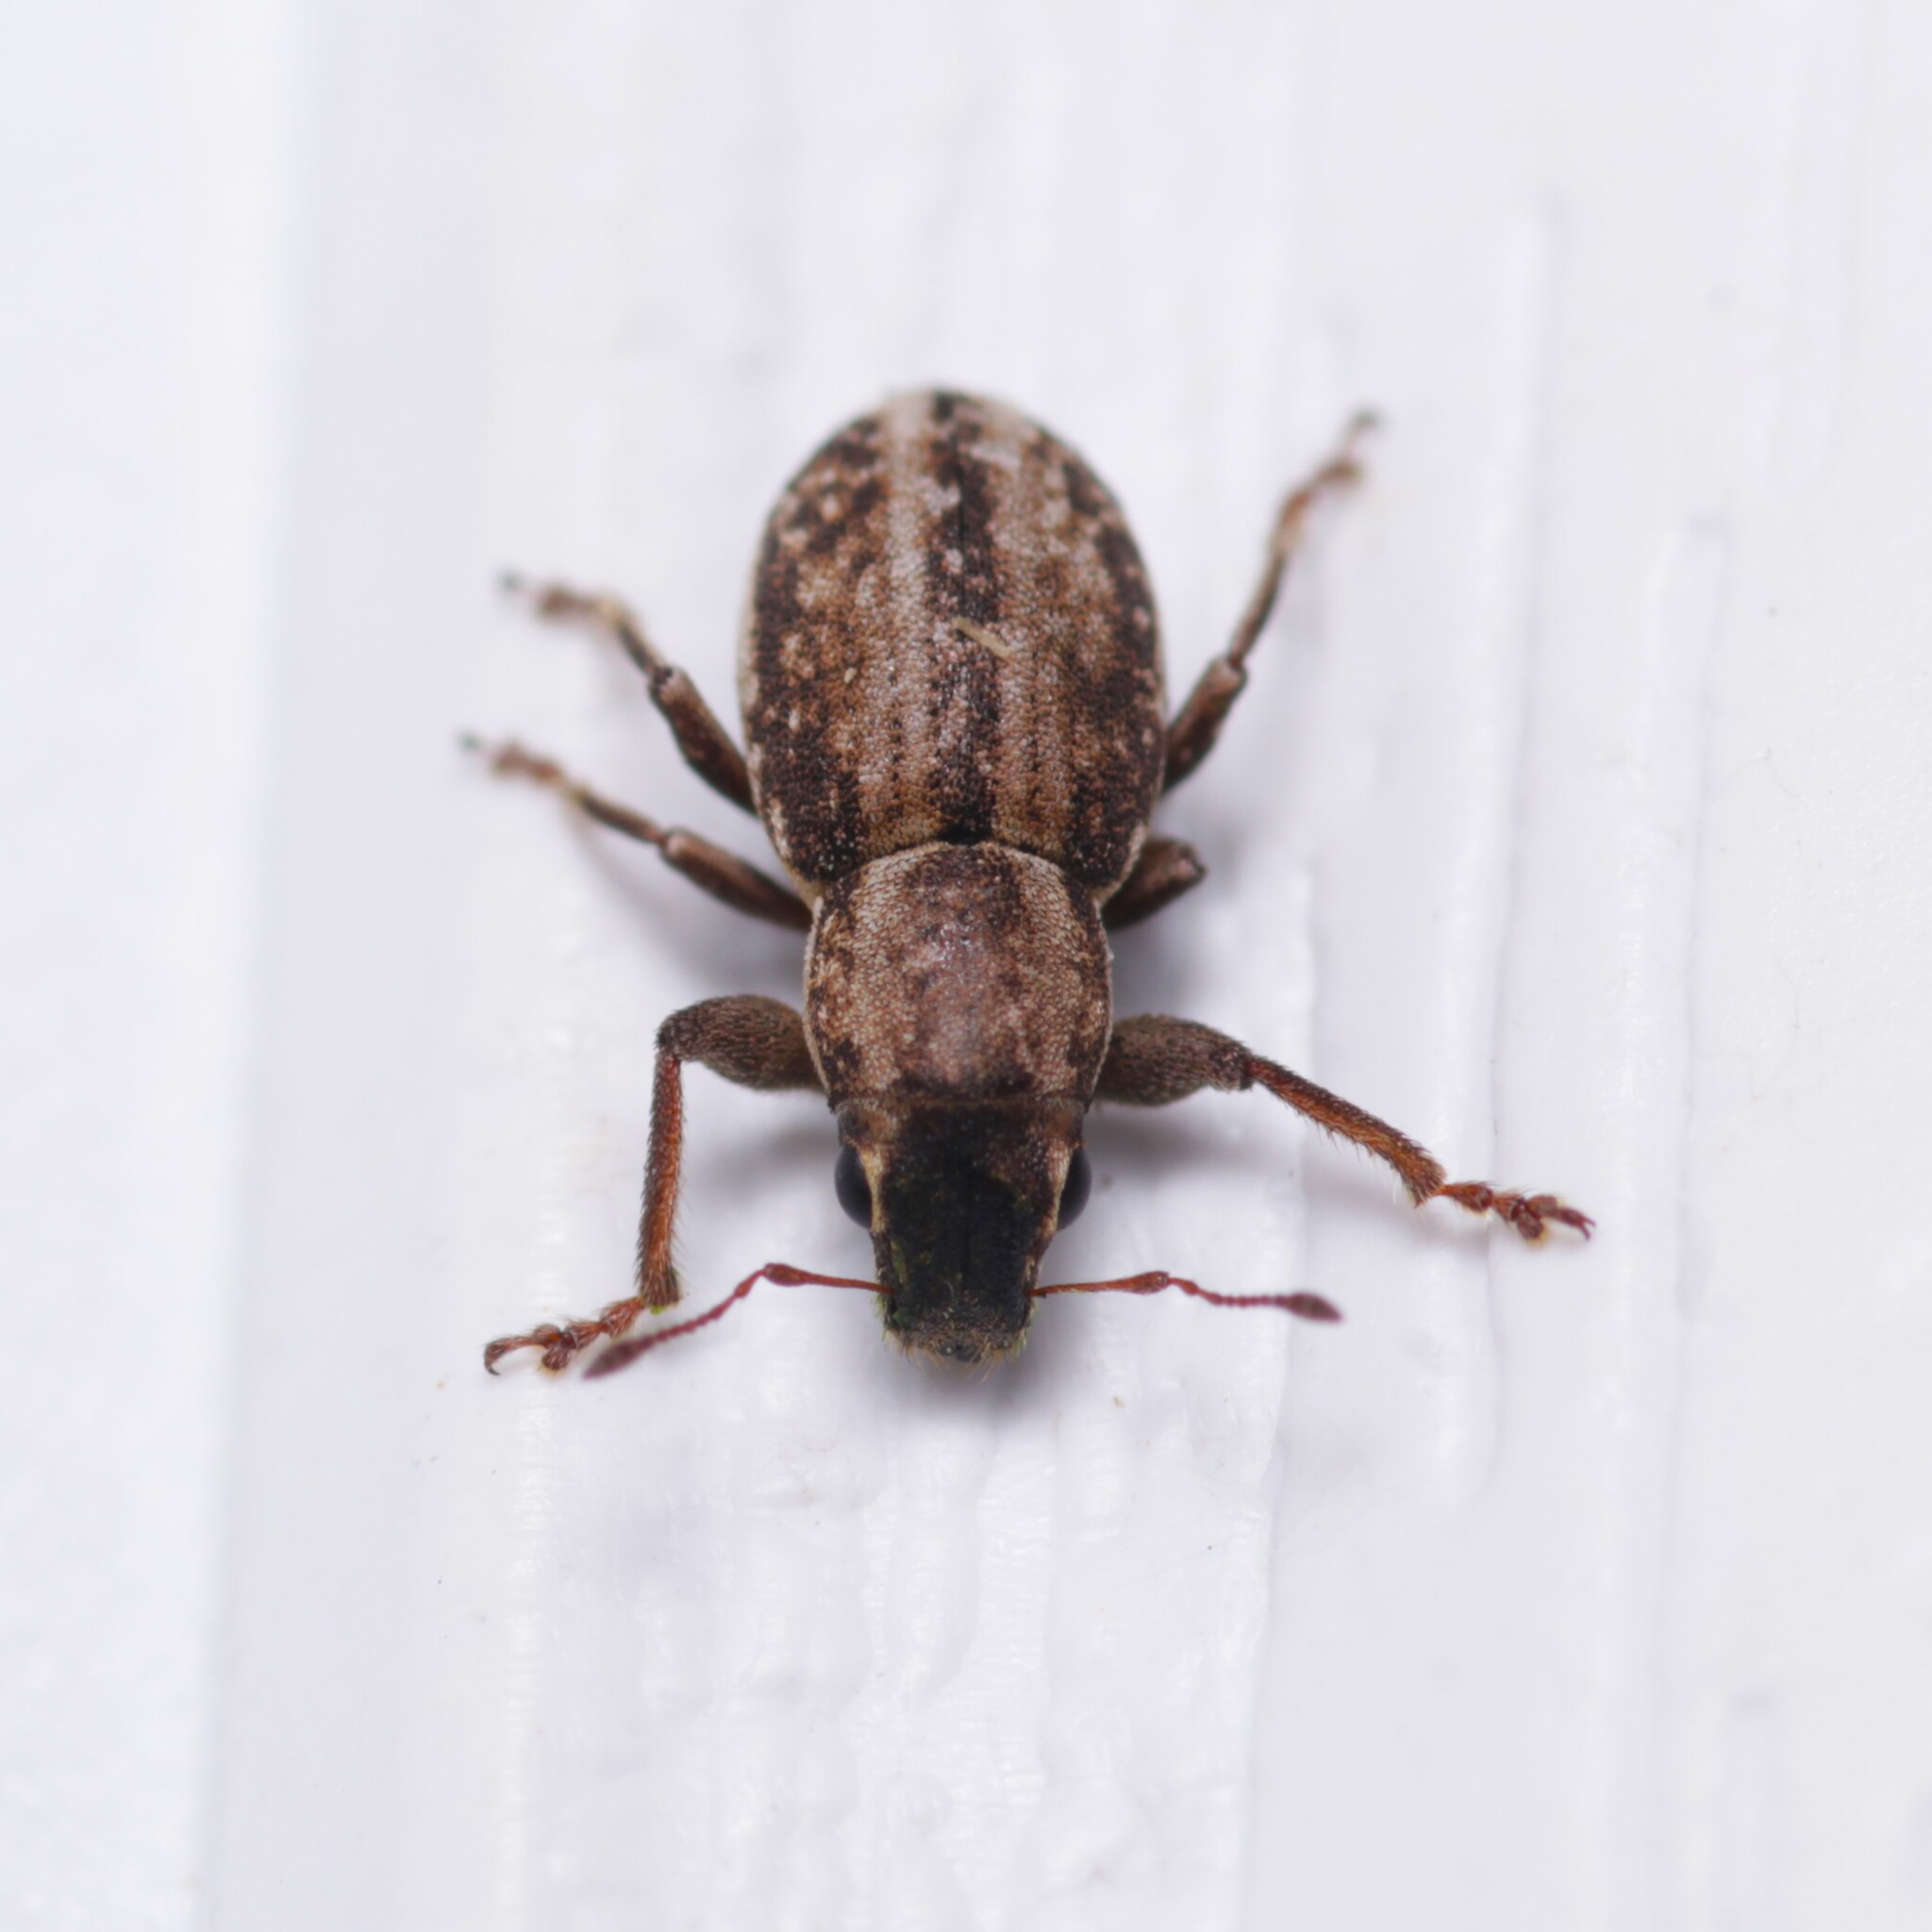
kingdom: Animalia
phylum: Arthropoda
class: Insecta
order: Coleoptera
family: Curculionidae
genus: Atrichonotus
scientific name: Atrichonotus taeniatulus
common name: Small lucerne weevil
